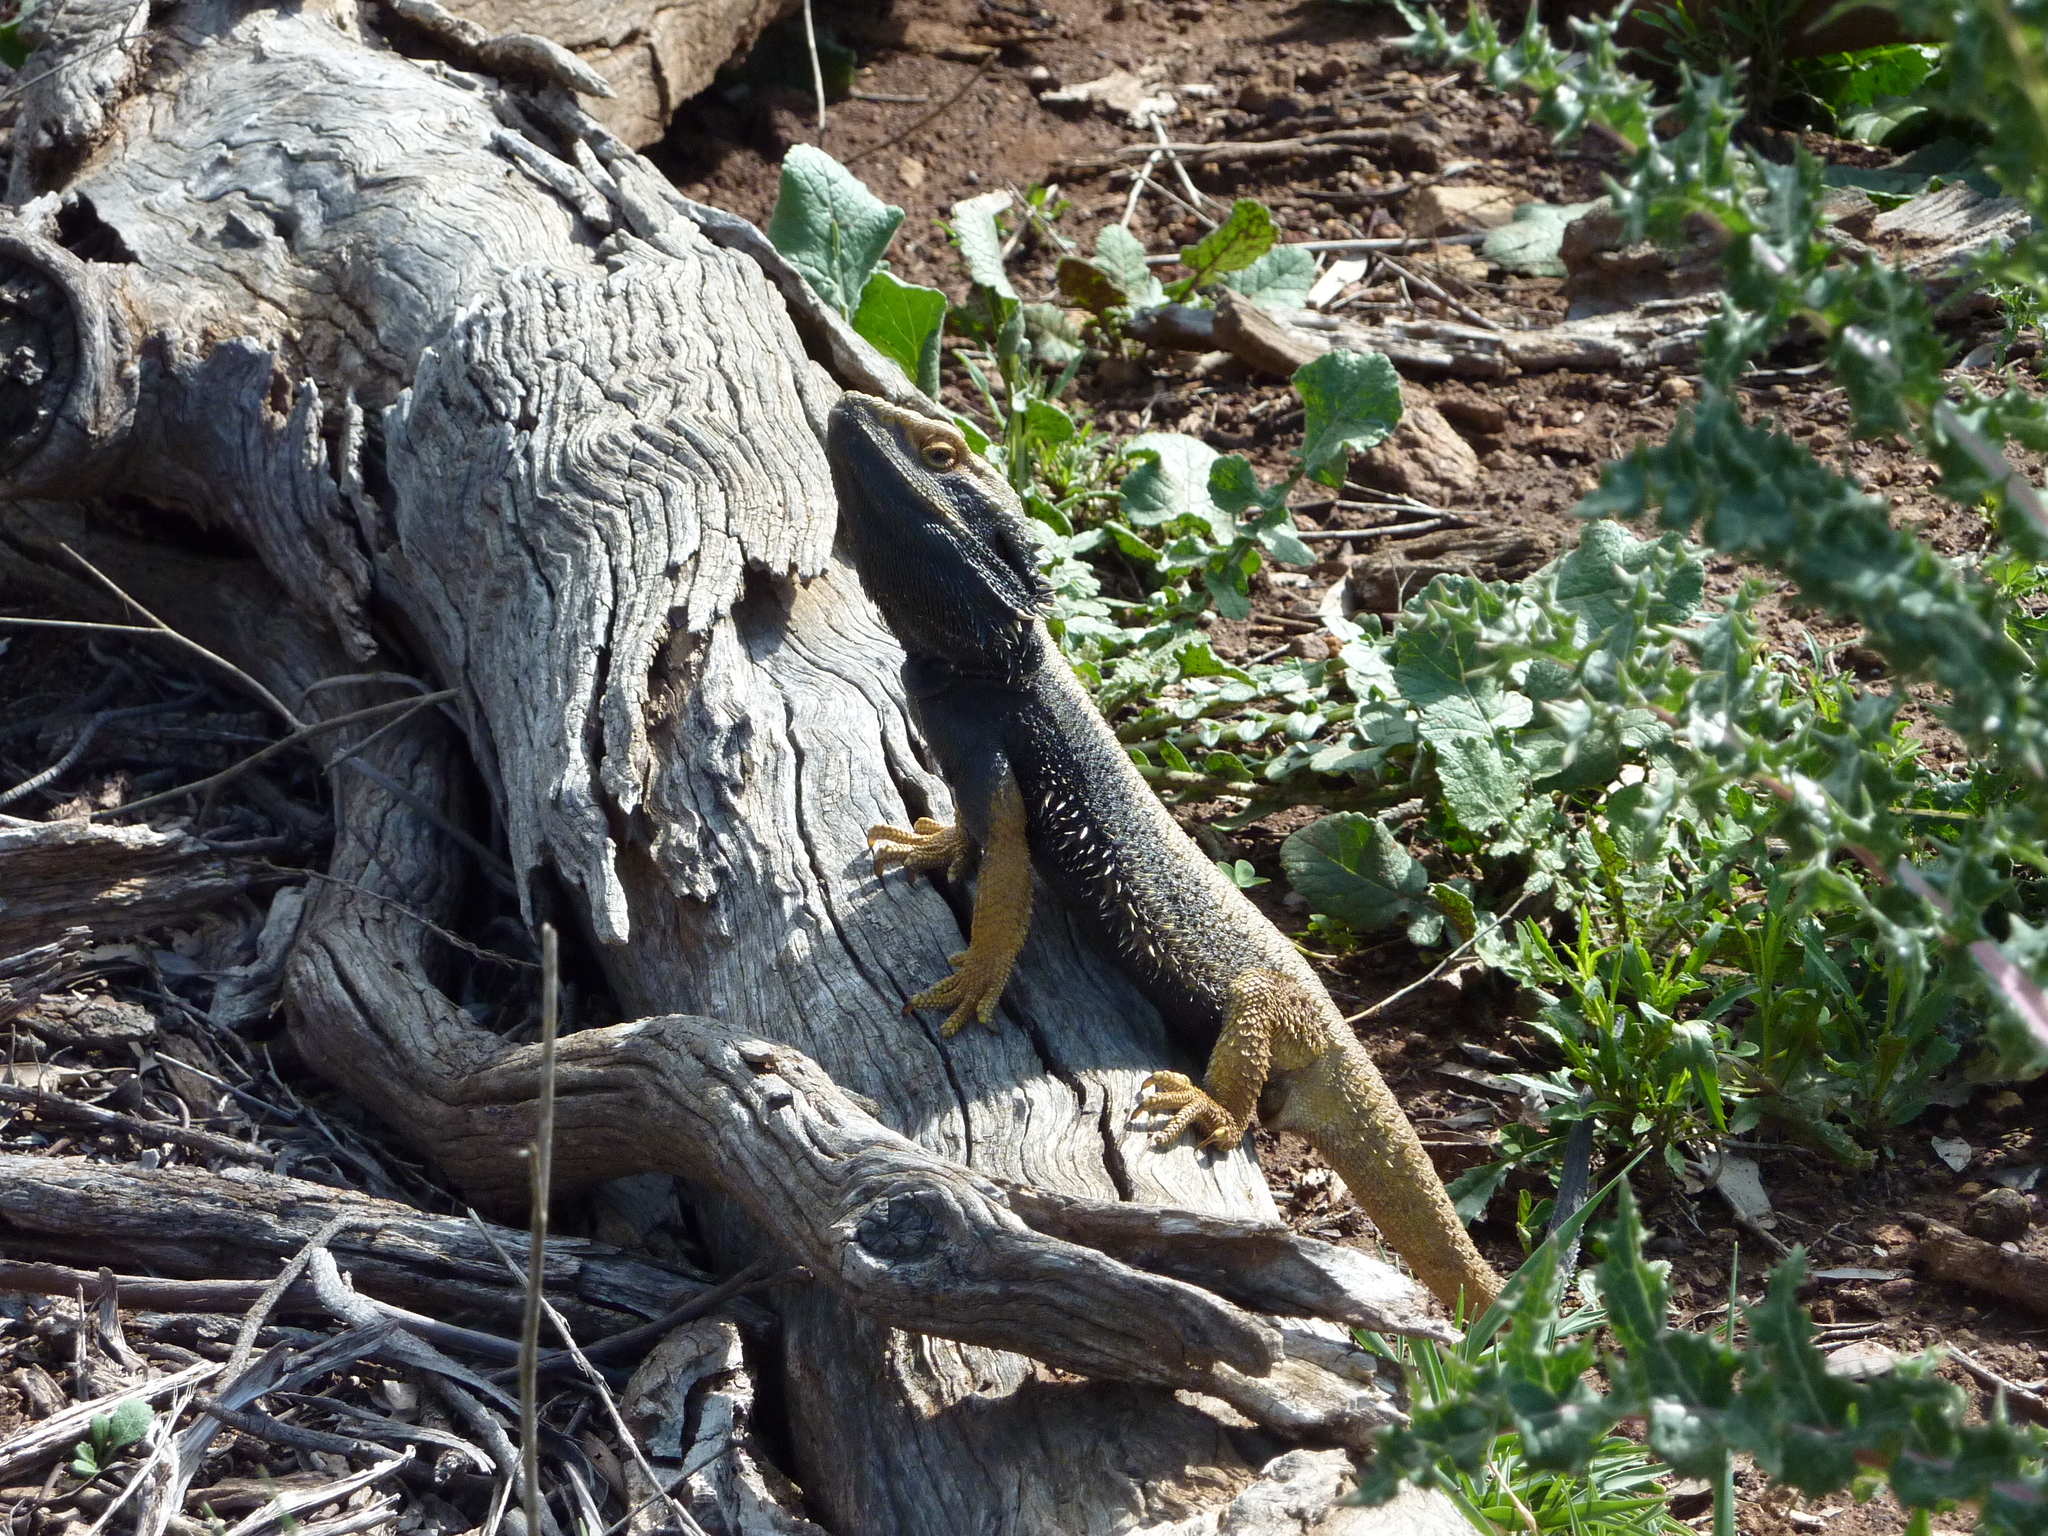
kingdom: Animalia
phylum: Chordata
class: Squamata
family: Agamidae
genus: Pogona
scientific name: Pogona barbata
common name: Bearded dragon
